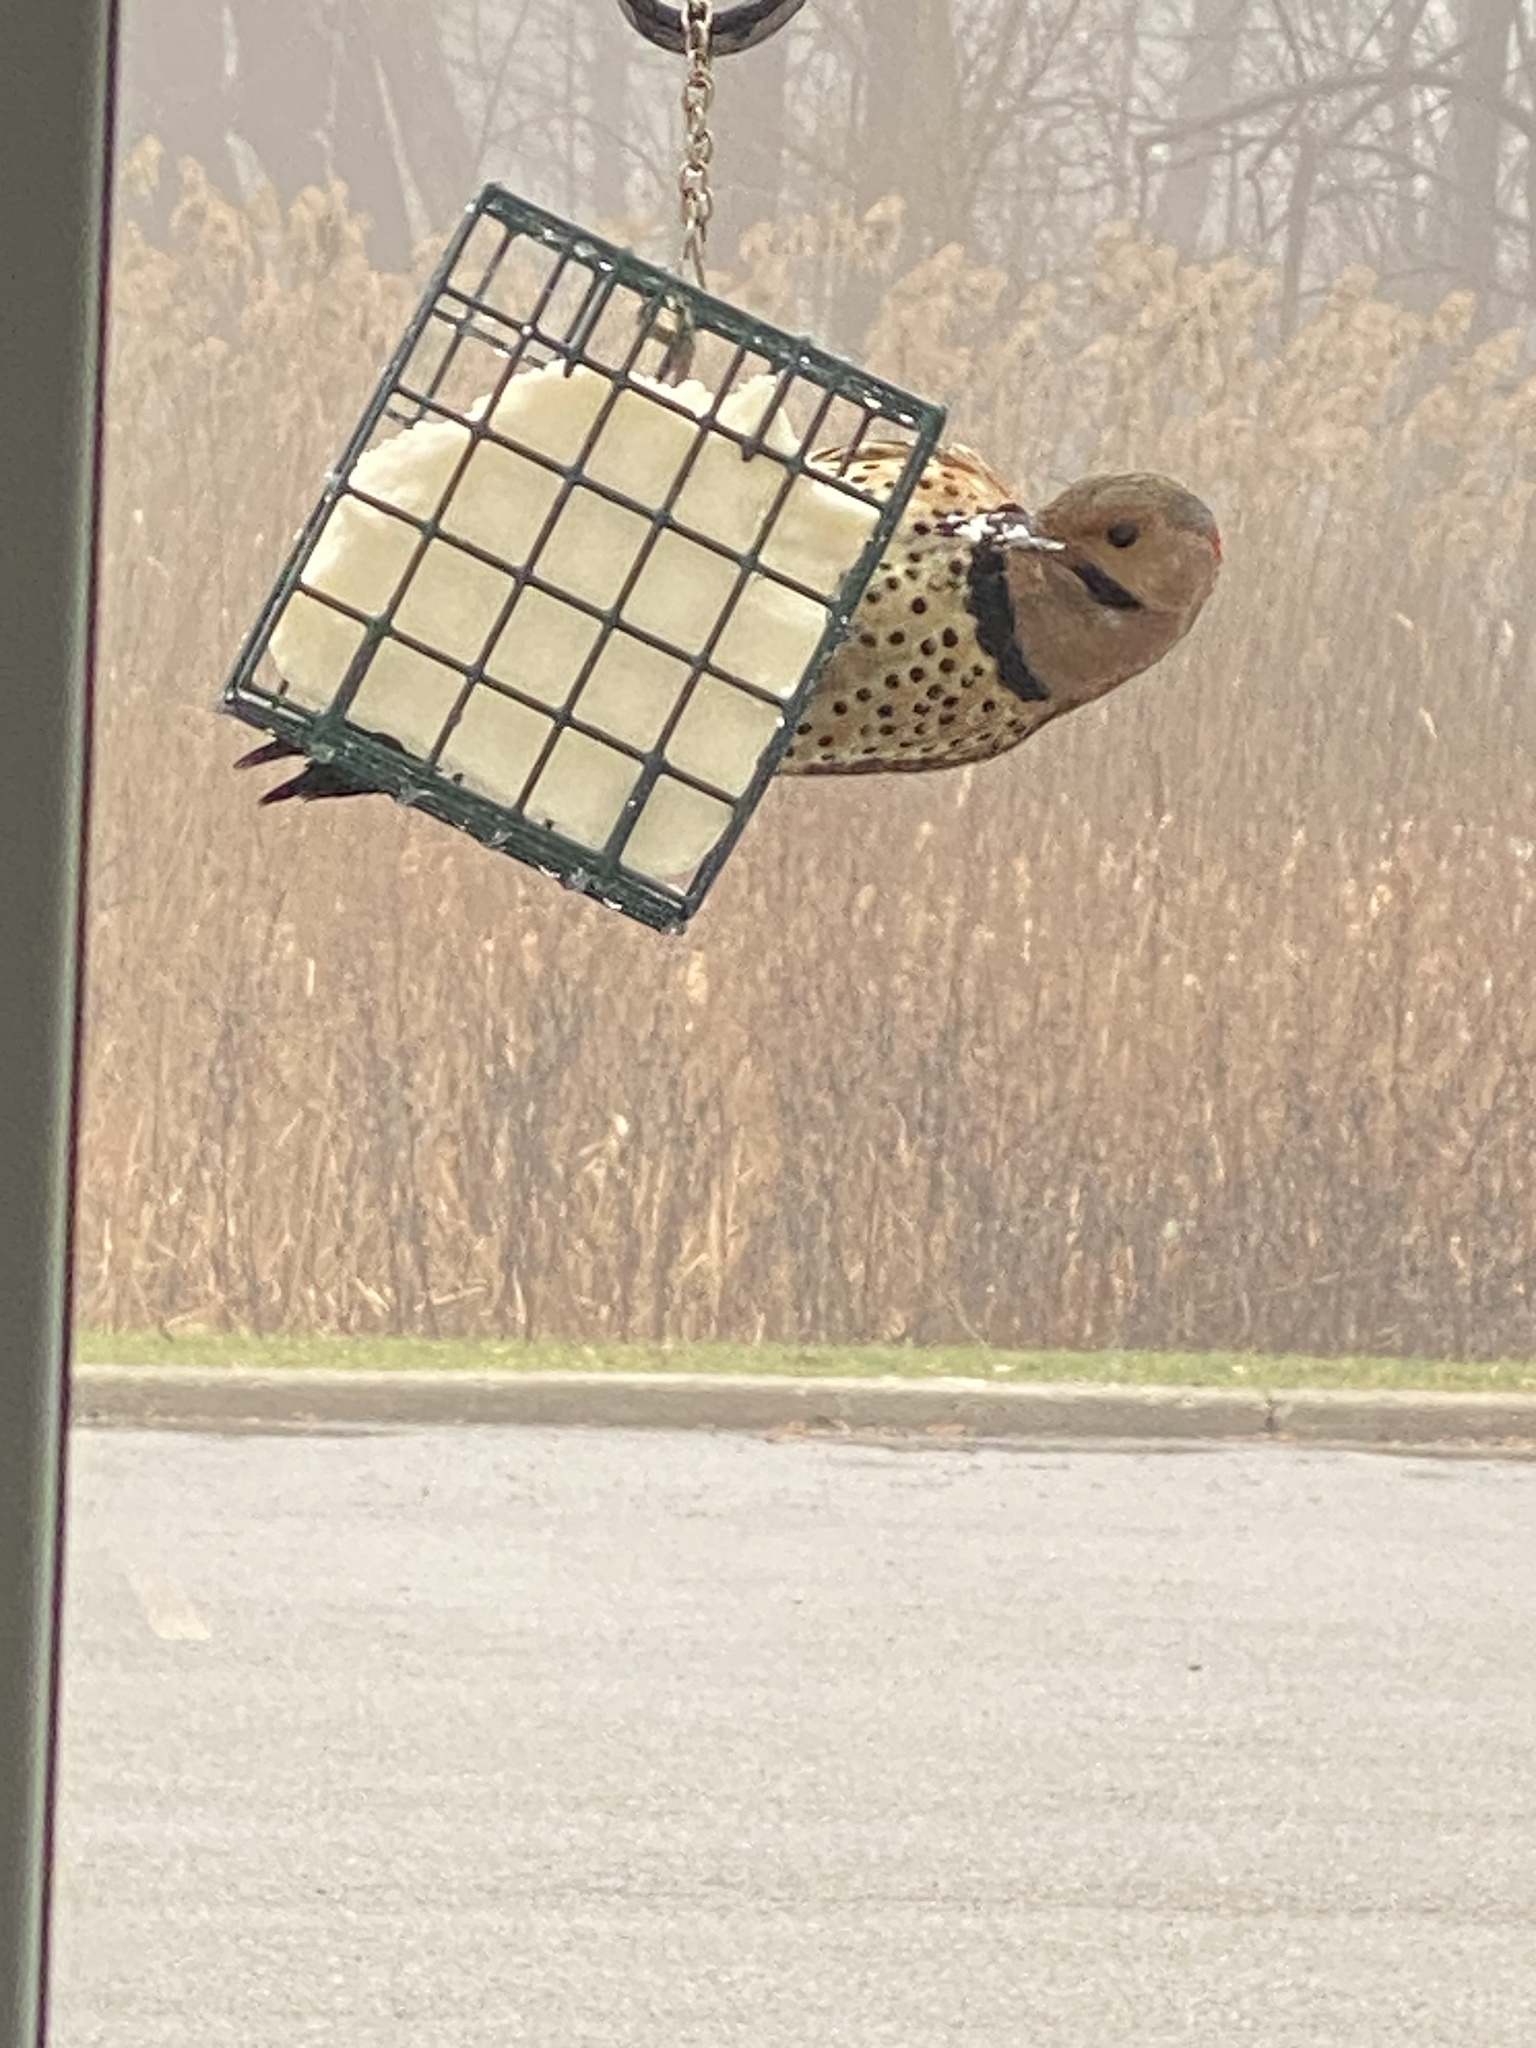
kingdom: Animalia
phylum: Chordata
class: Aves
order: Piciformes
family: Picidae
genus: Colaptes
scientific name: Colaptes auratus
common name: Northern flicker
